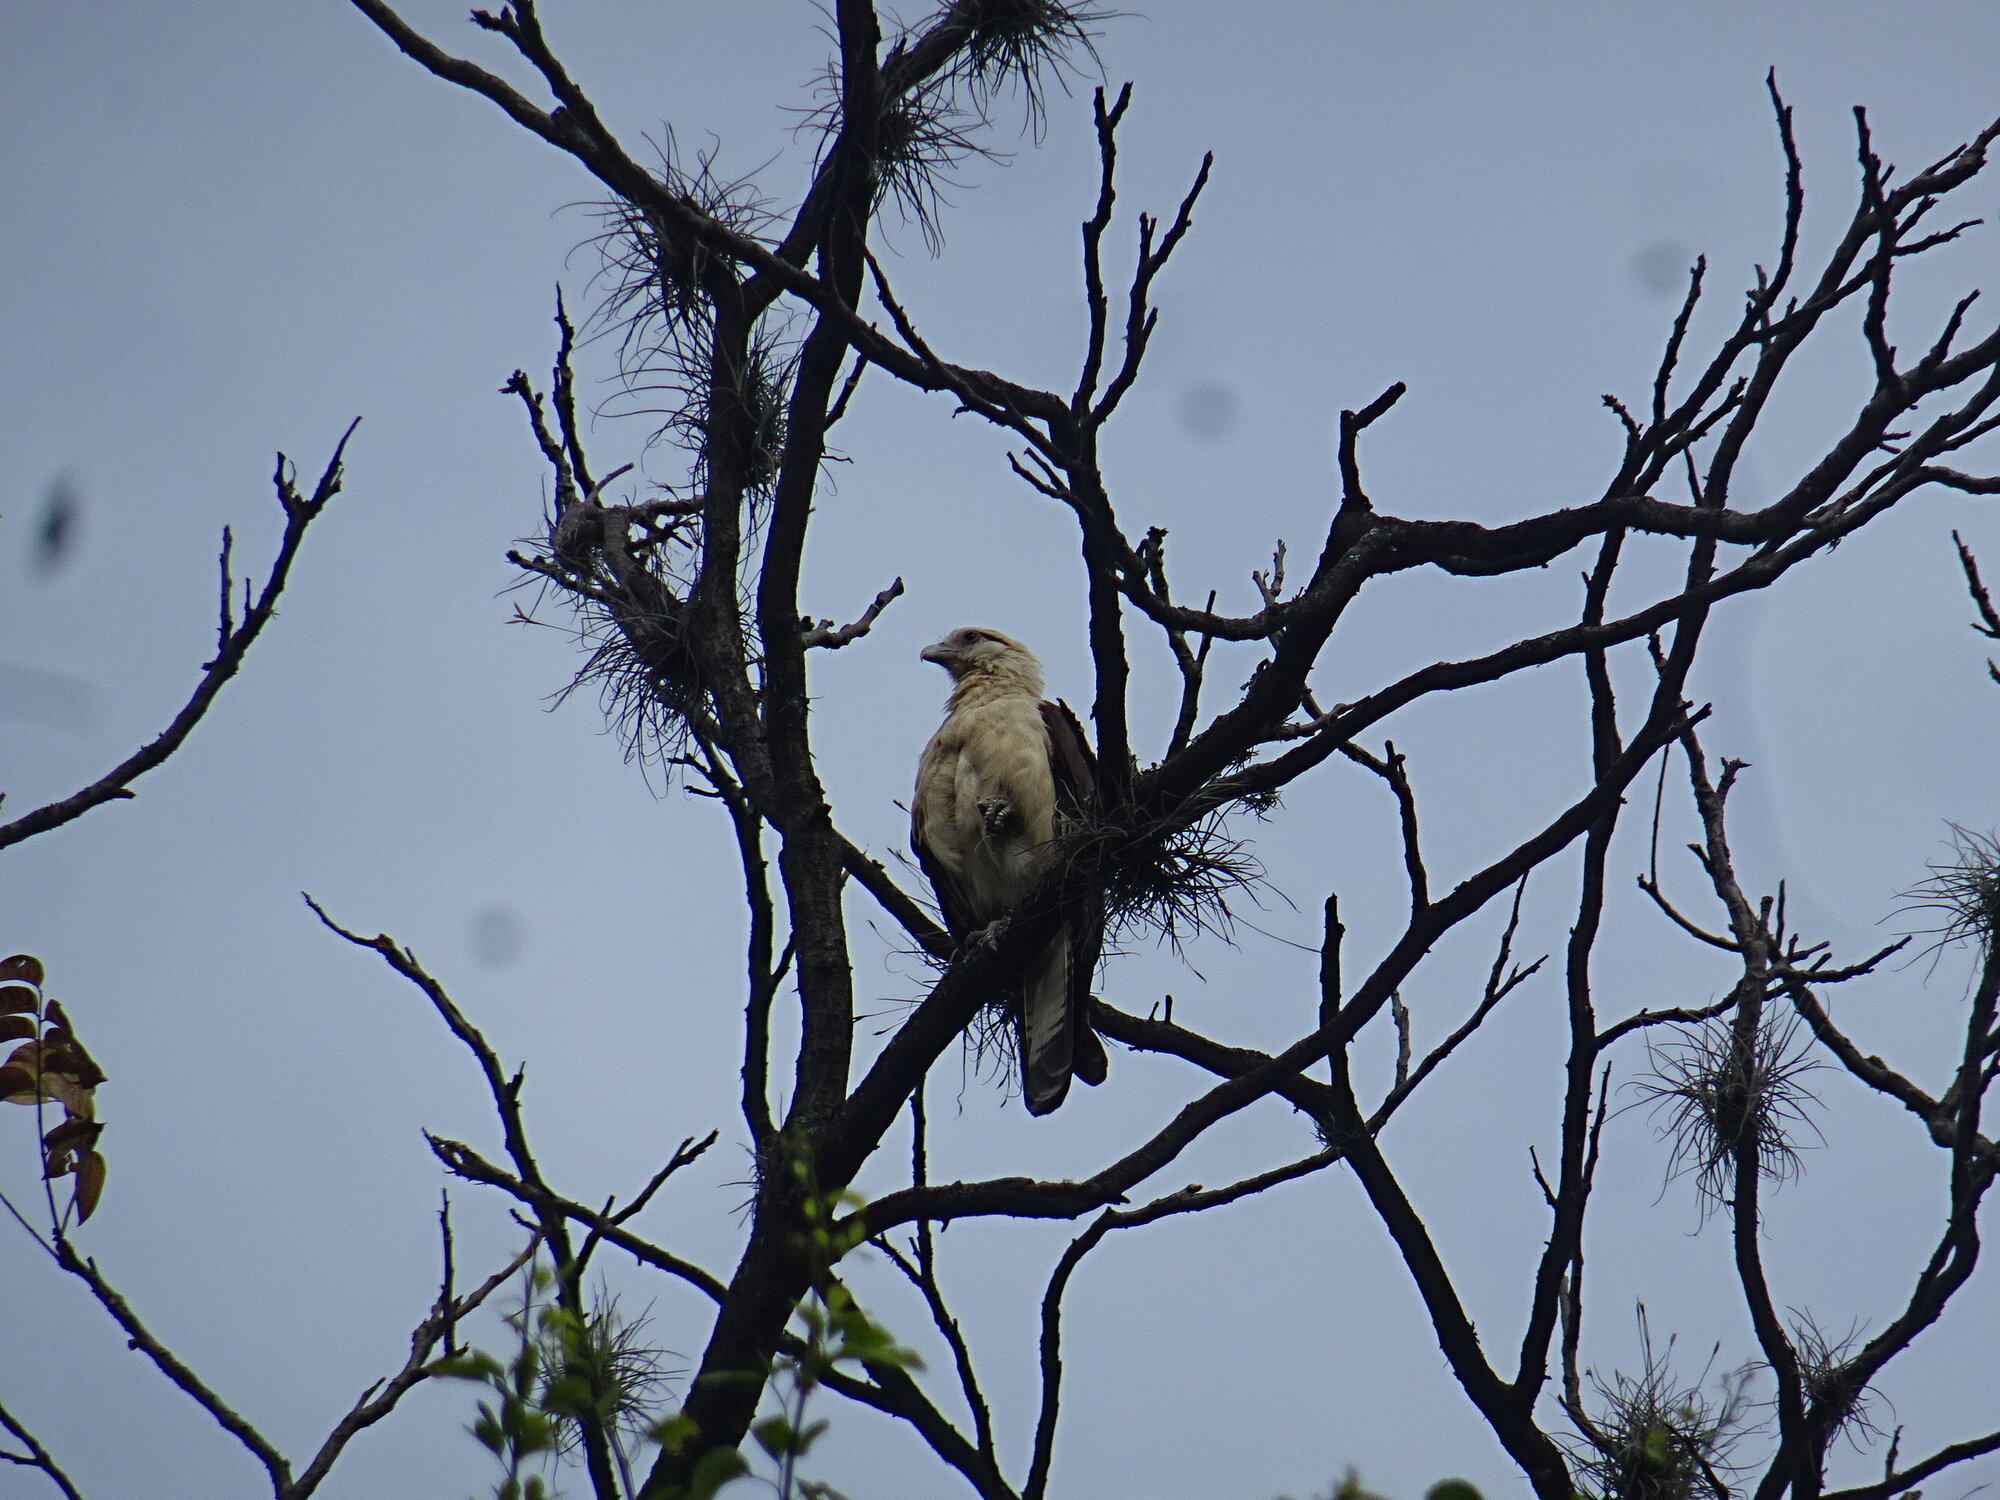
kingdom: Animalia
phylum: Chordata
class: Aves
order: Falconiformes
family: Falconidae
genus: Daptrius
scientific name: Daptrius
